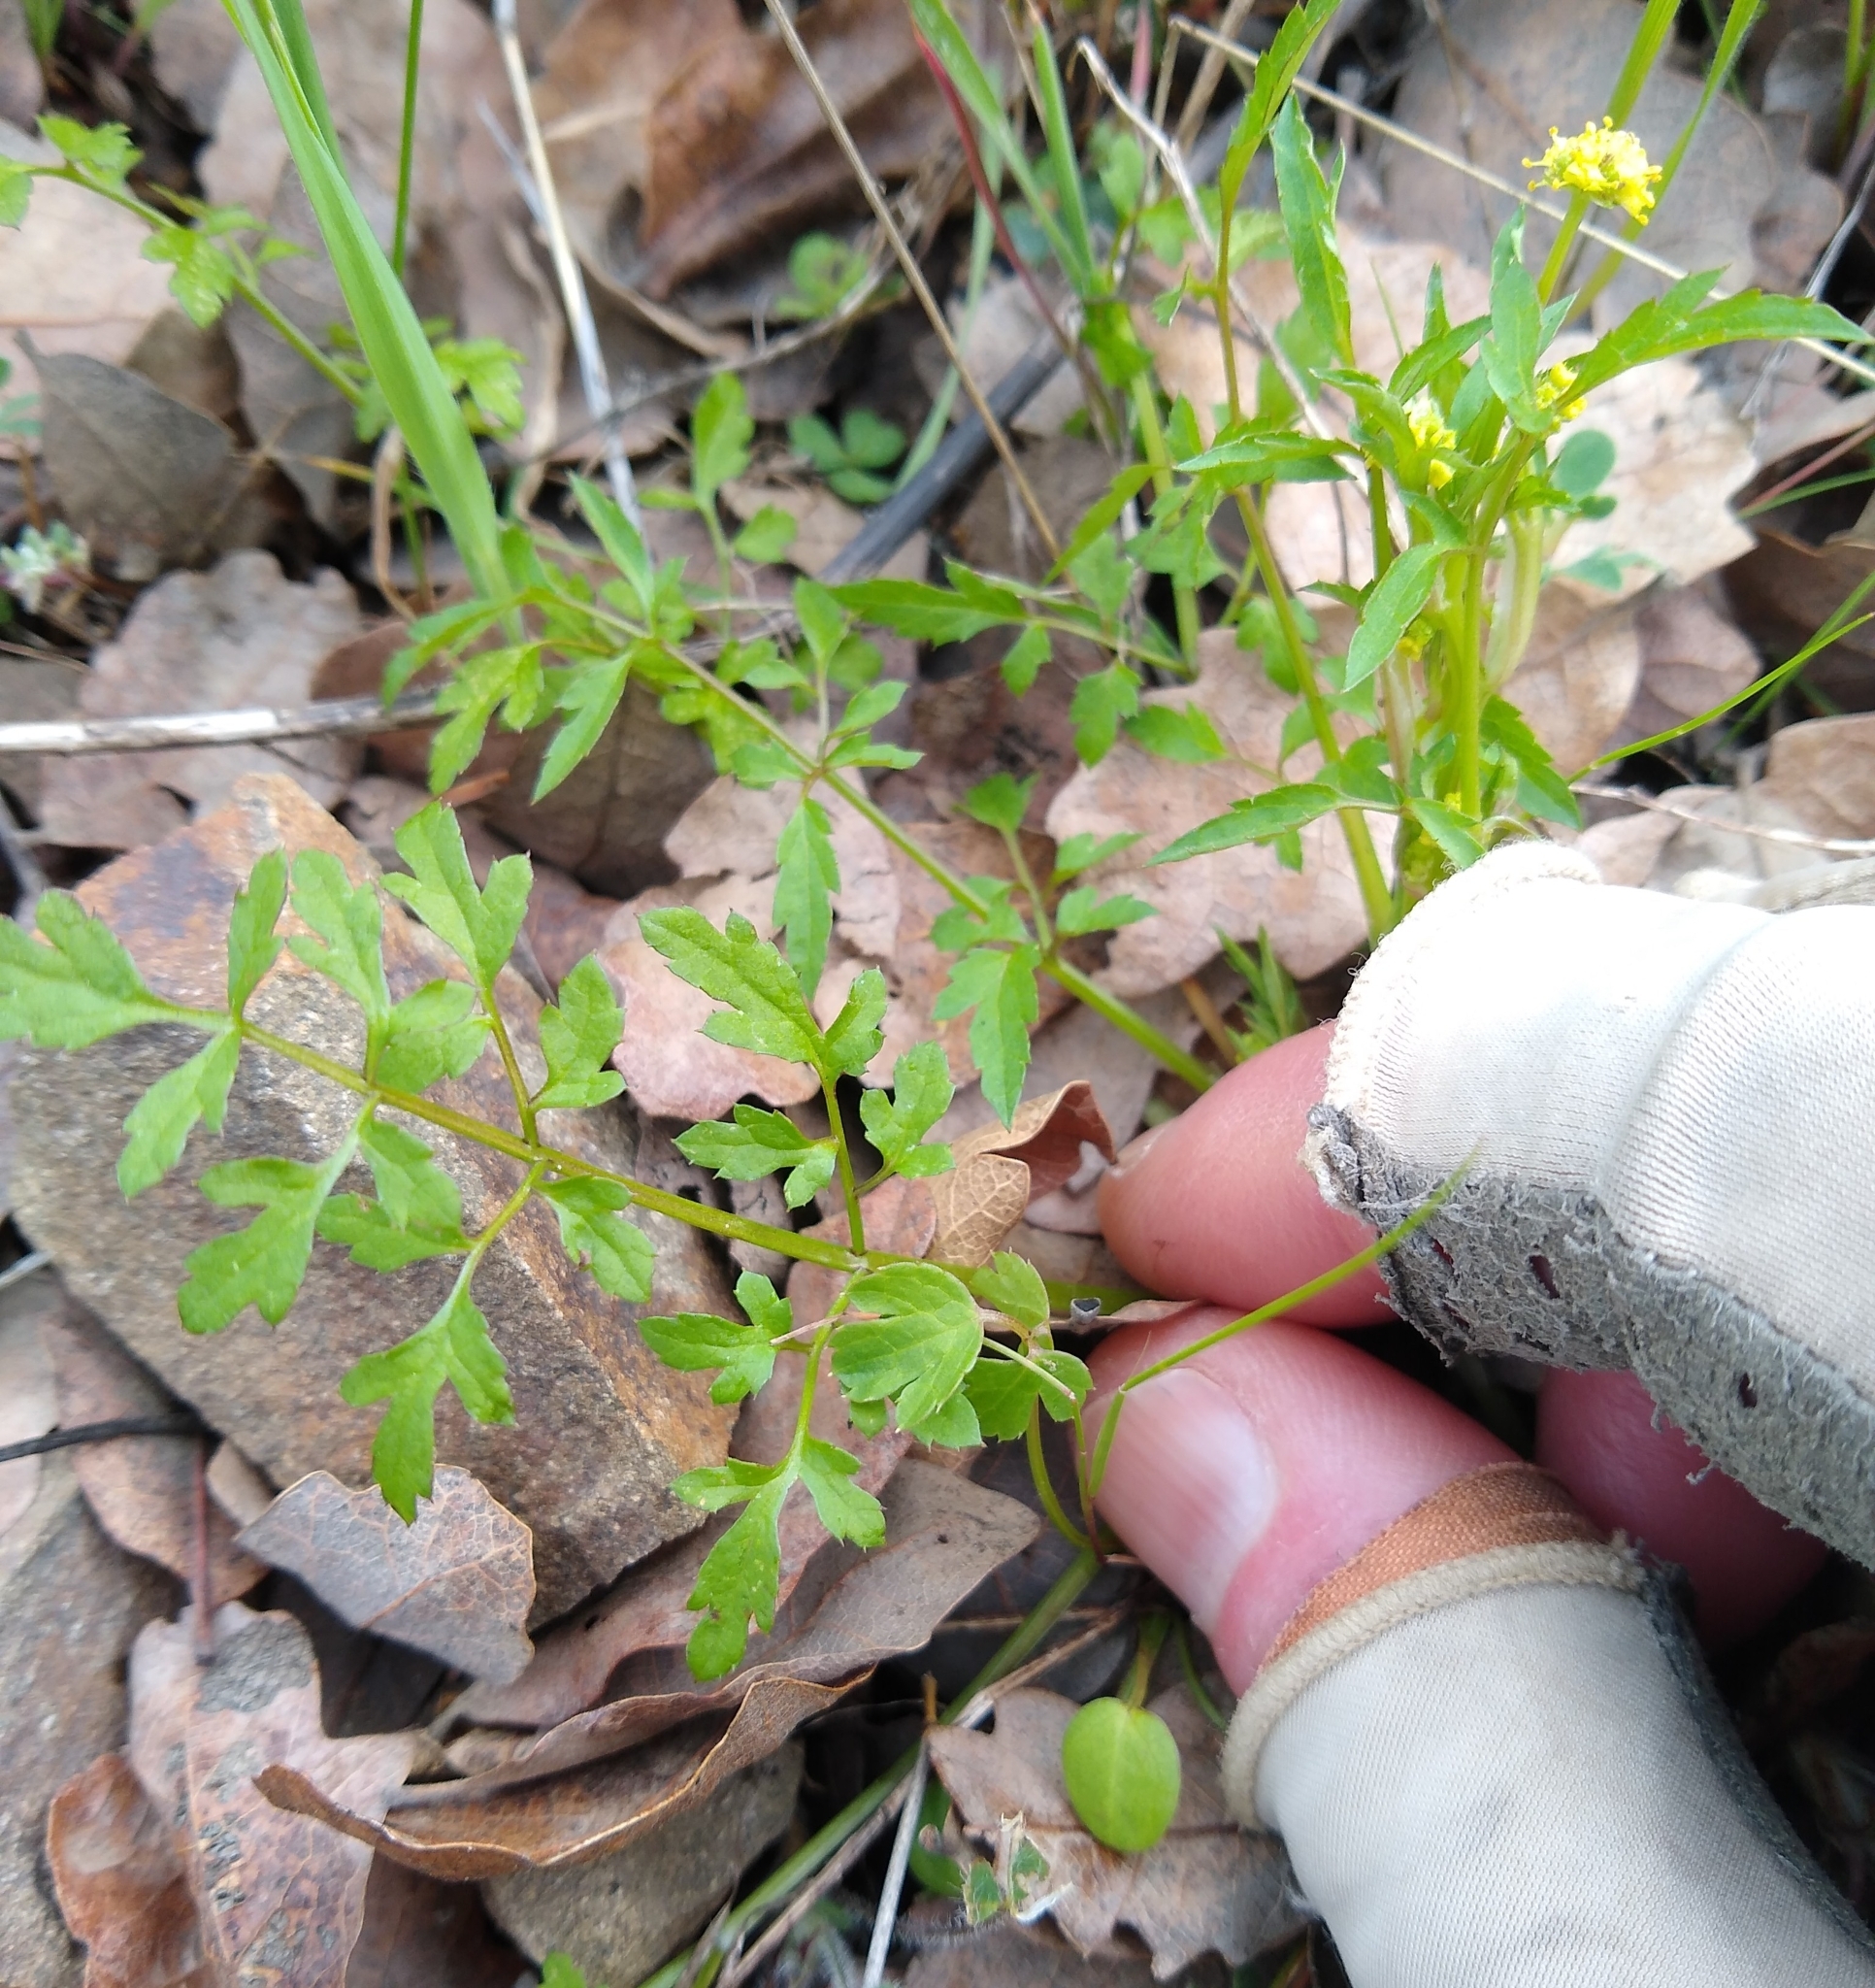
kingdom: Plantae
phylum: Tracheophyta
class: Magnoliopsida
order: Apiales
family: Apiaceae
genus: Sanicula
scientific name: Sanicula bipinnata
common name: Poison sanicle
